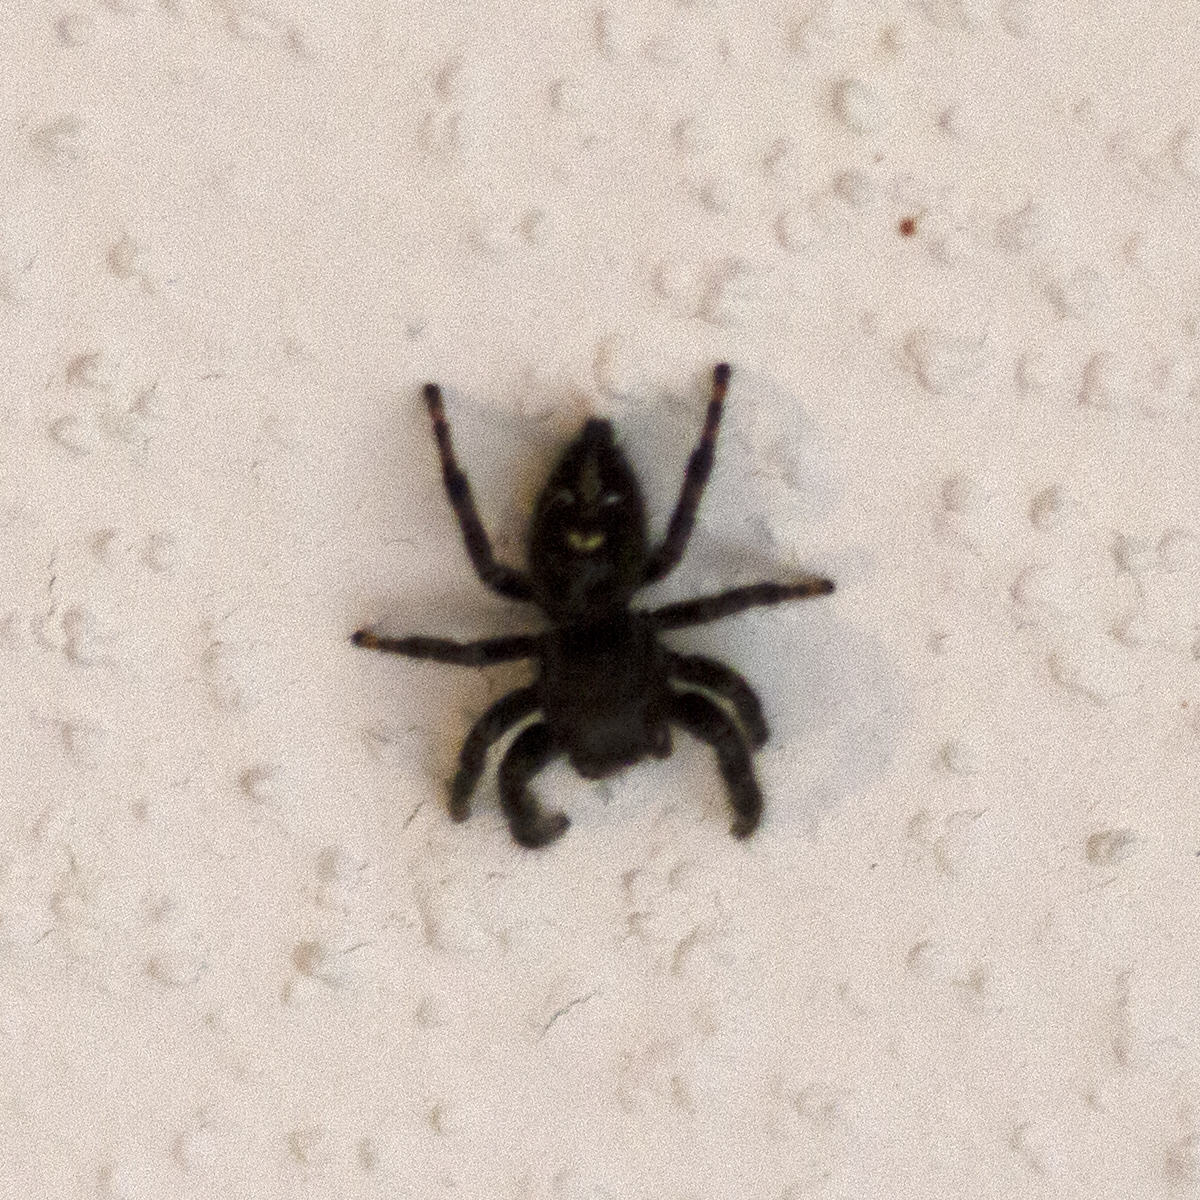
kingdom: Animalia
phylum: Arthropoda
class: Arachnida
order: Araneae
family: Salticidae
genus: Phidippus
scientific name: Phidippus audax
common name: Bold jumper
